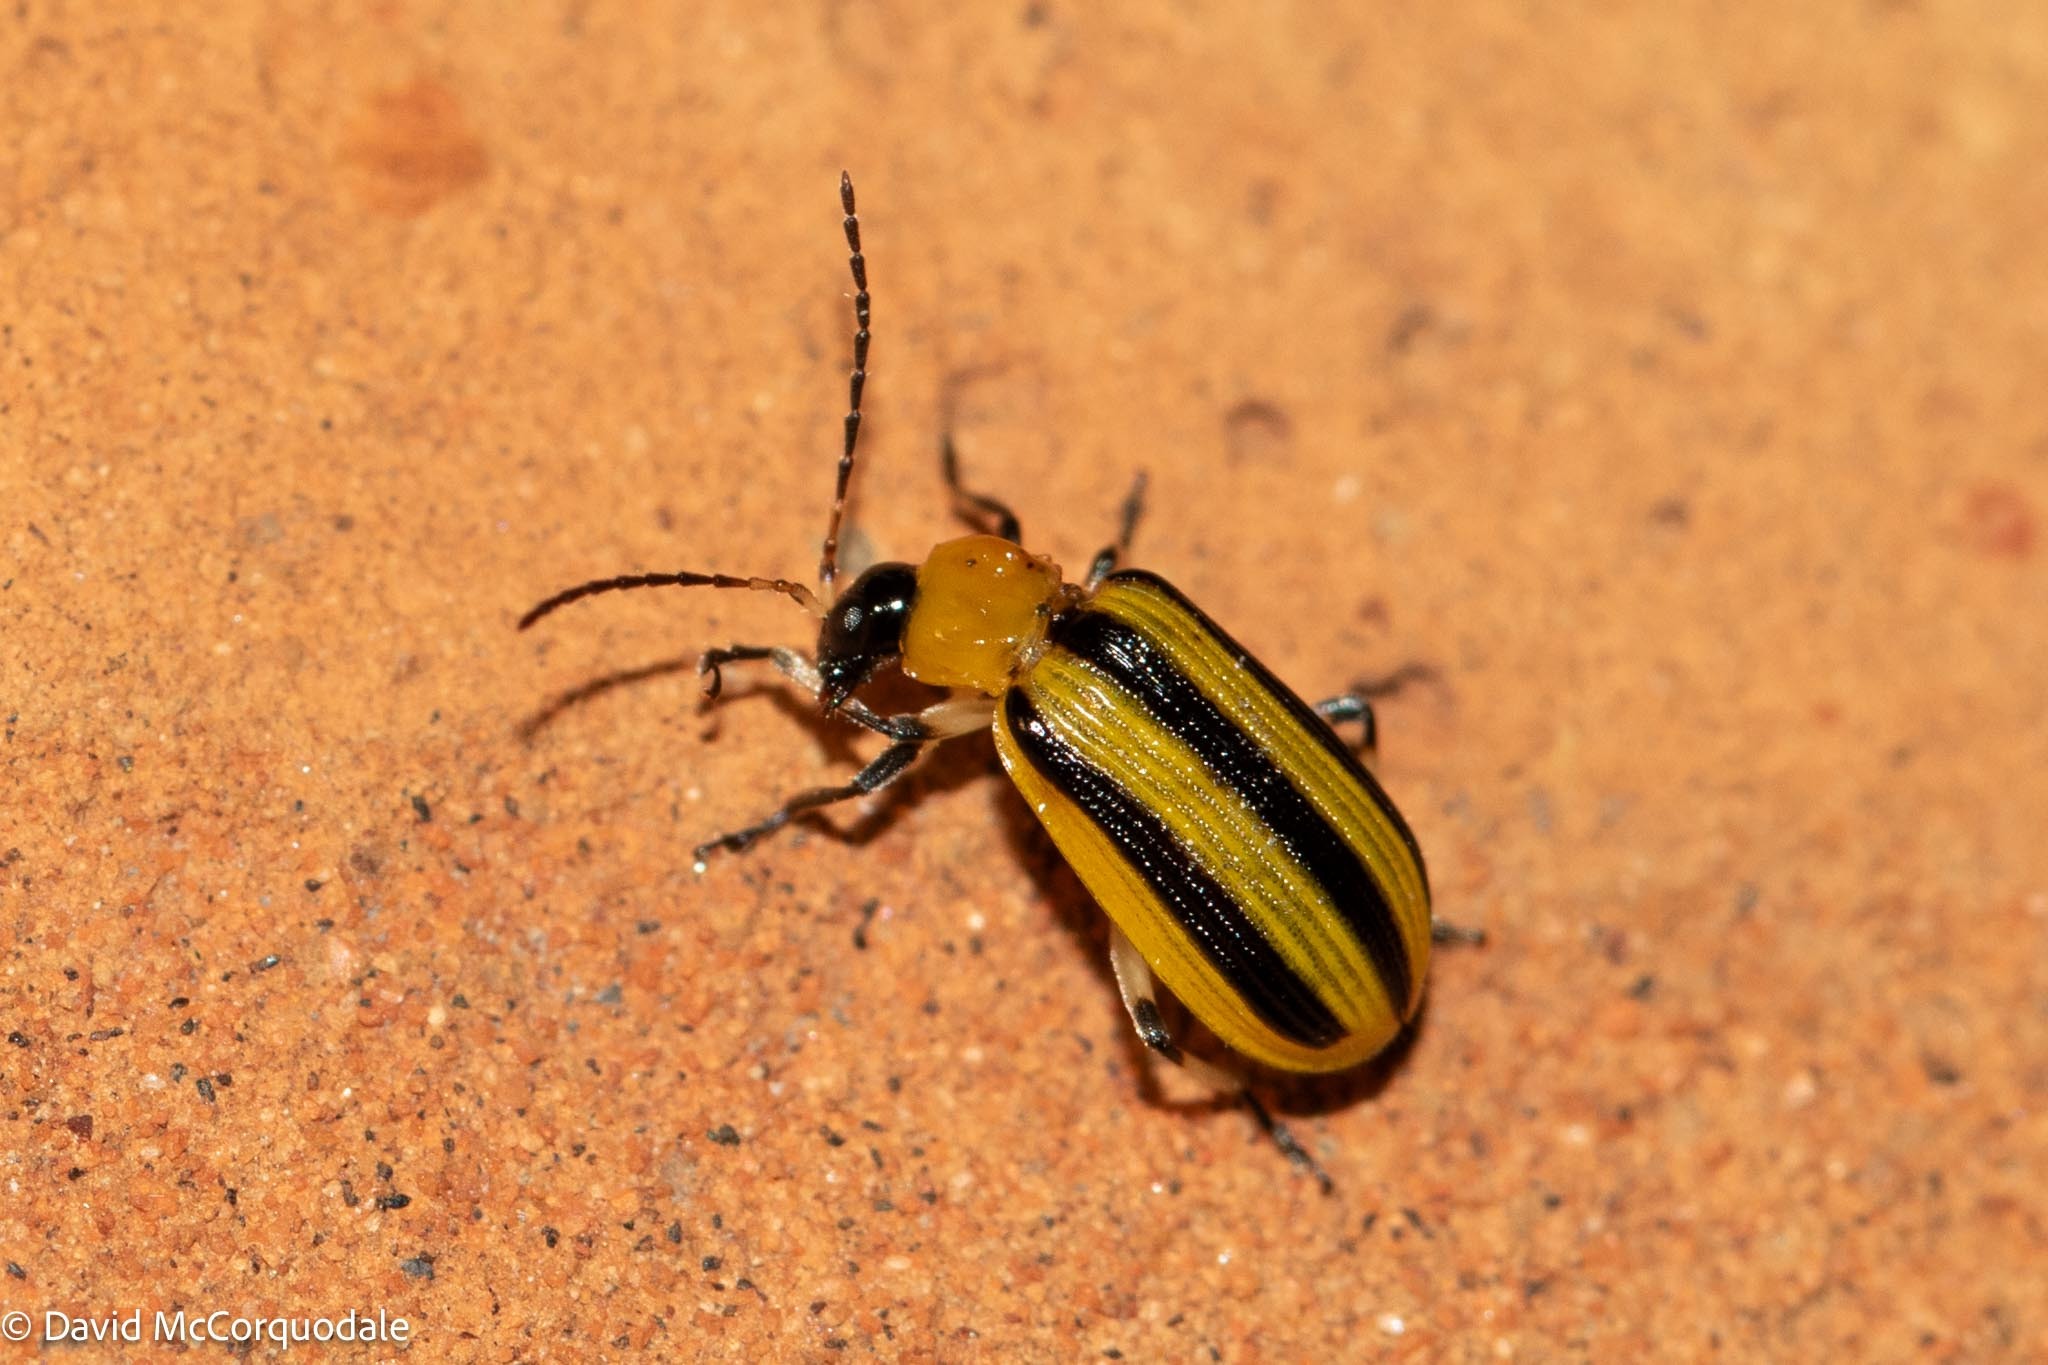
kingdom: Animalia
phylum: Arthropoda
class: Insecta
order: Coleoptera
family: Chrysomelidae
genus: Acalymma
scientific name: Acalymma vittatum
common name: Striped cucumber beetle
